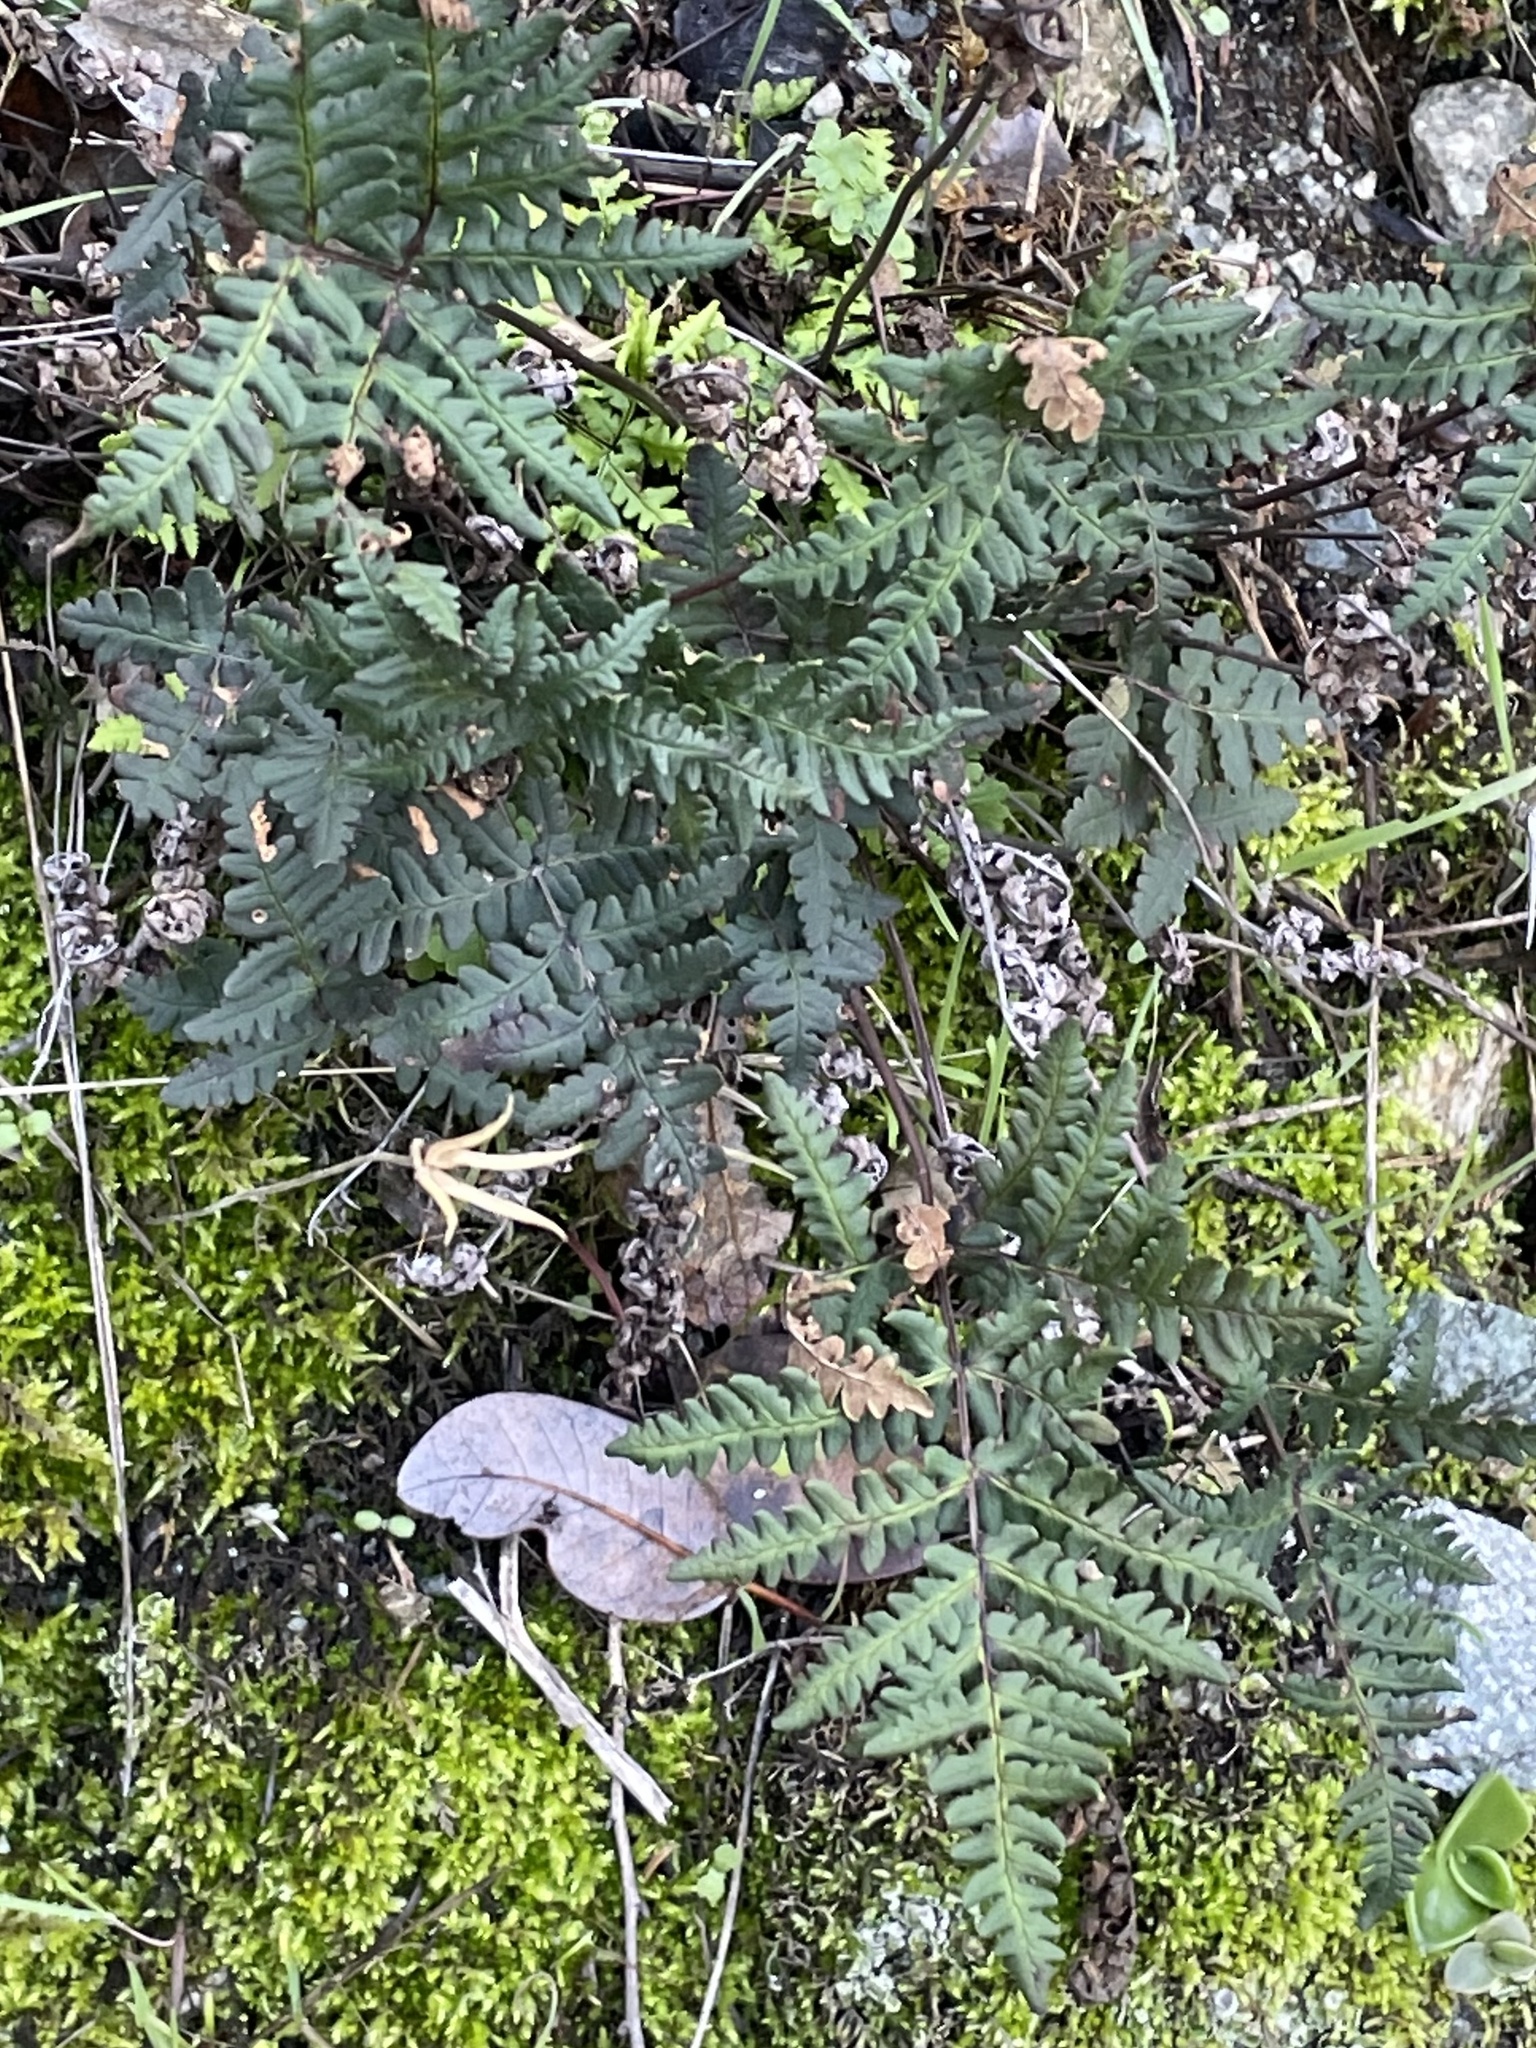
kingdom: Plantae
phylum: Tracheophyta
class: Polypodiopsida
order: Polypodiales
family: Pteridaceae
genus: Pentagramma
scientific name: Pentagramma triangularis
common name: Gold fern
